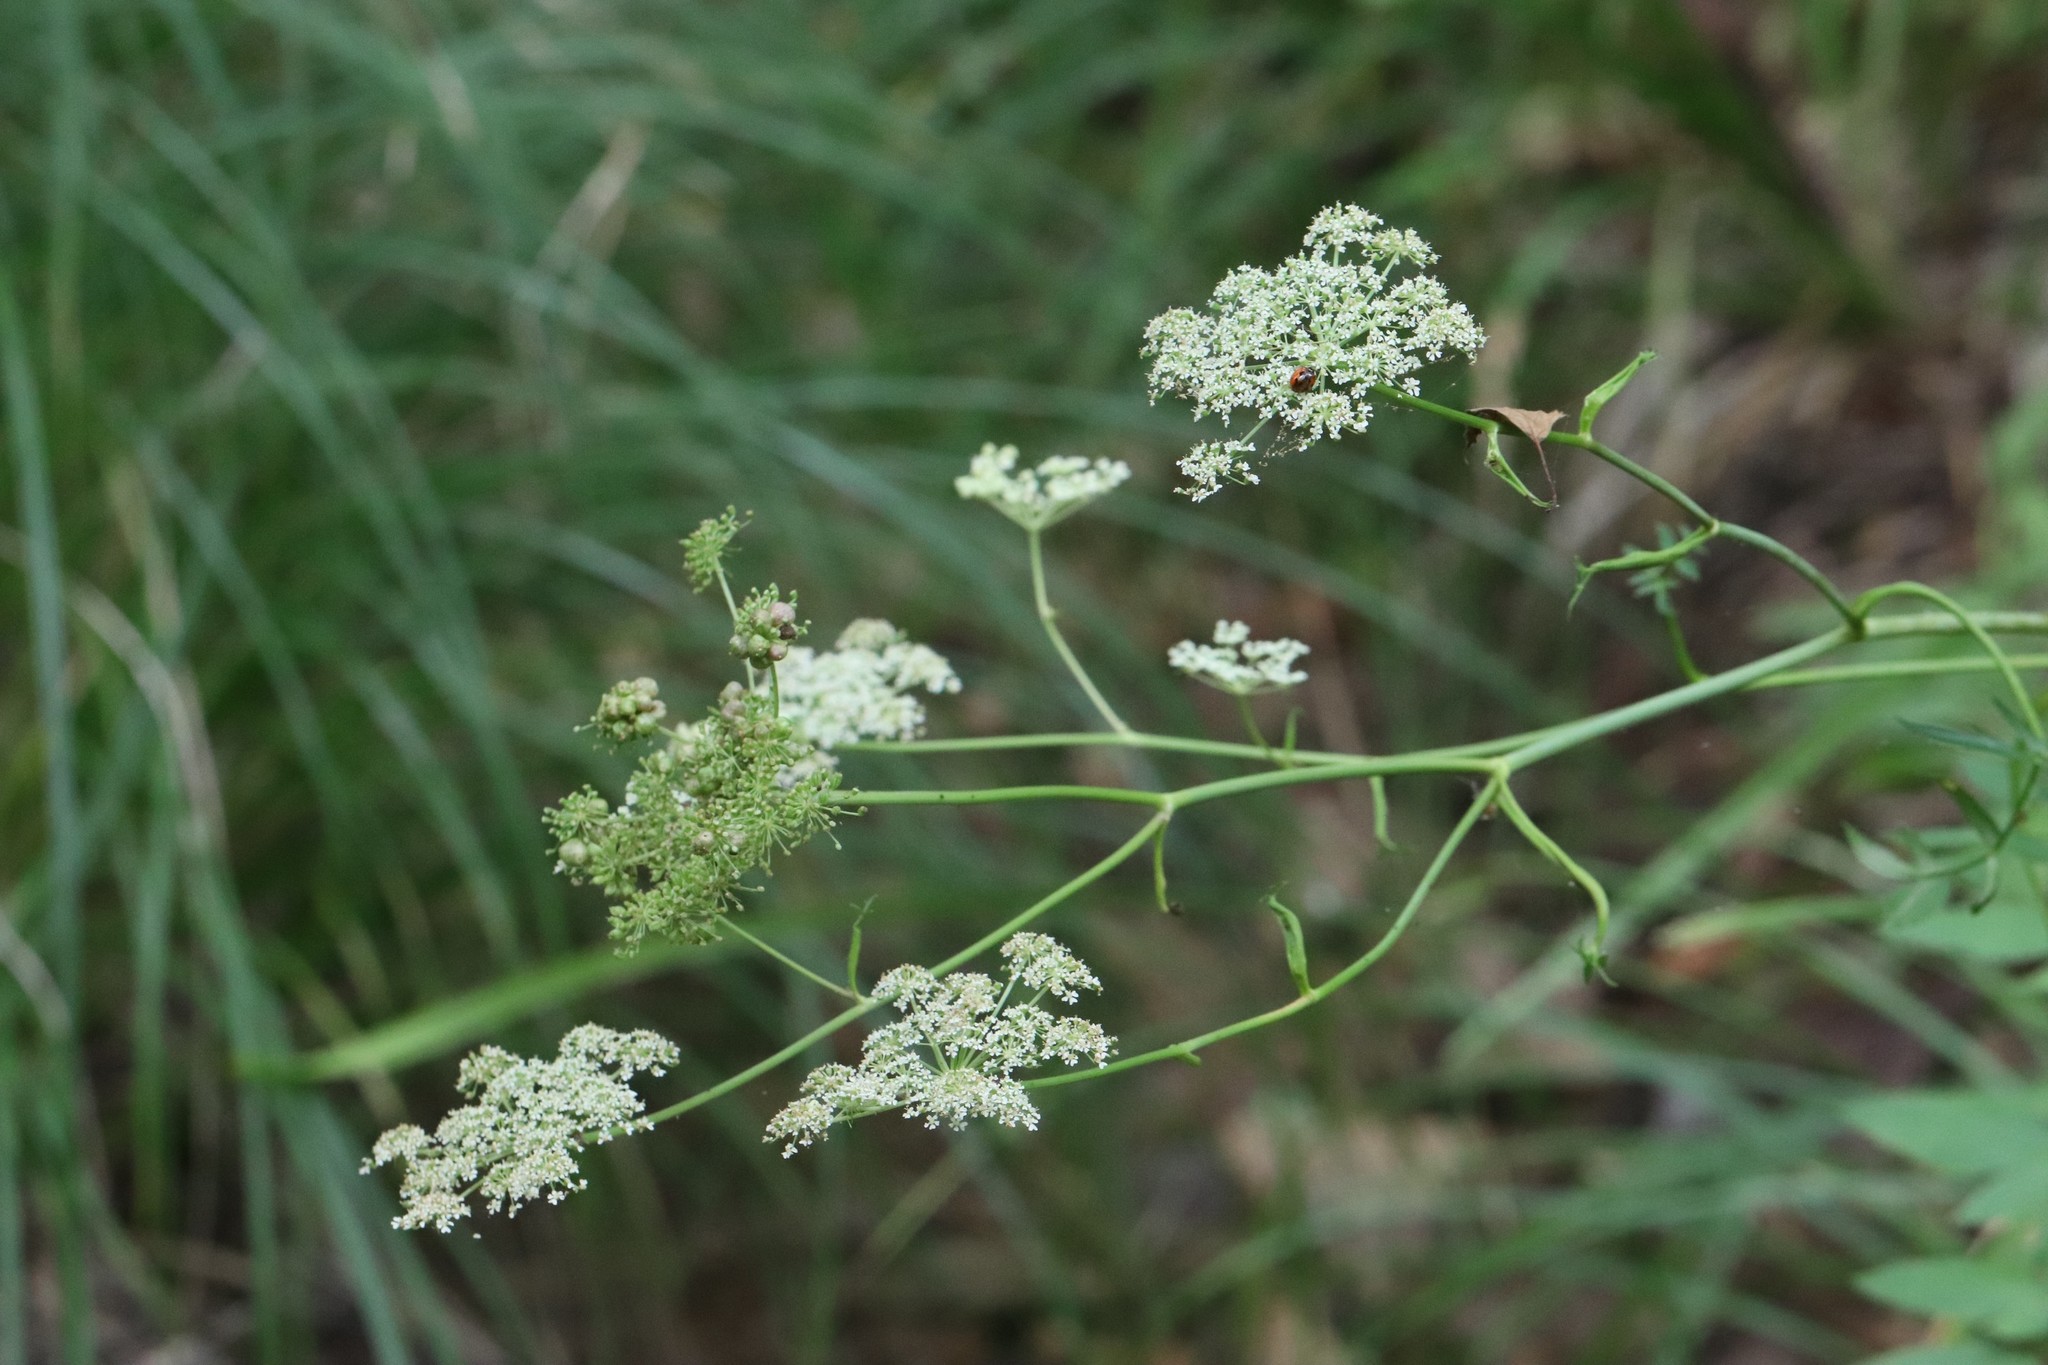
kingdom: Plantae
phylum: Tracheophyta
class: Magnoliopsida
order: Apiales
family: Apiaceae
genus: Angelica
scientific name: Angelica czernaevia
